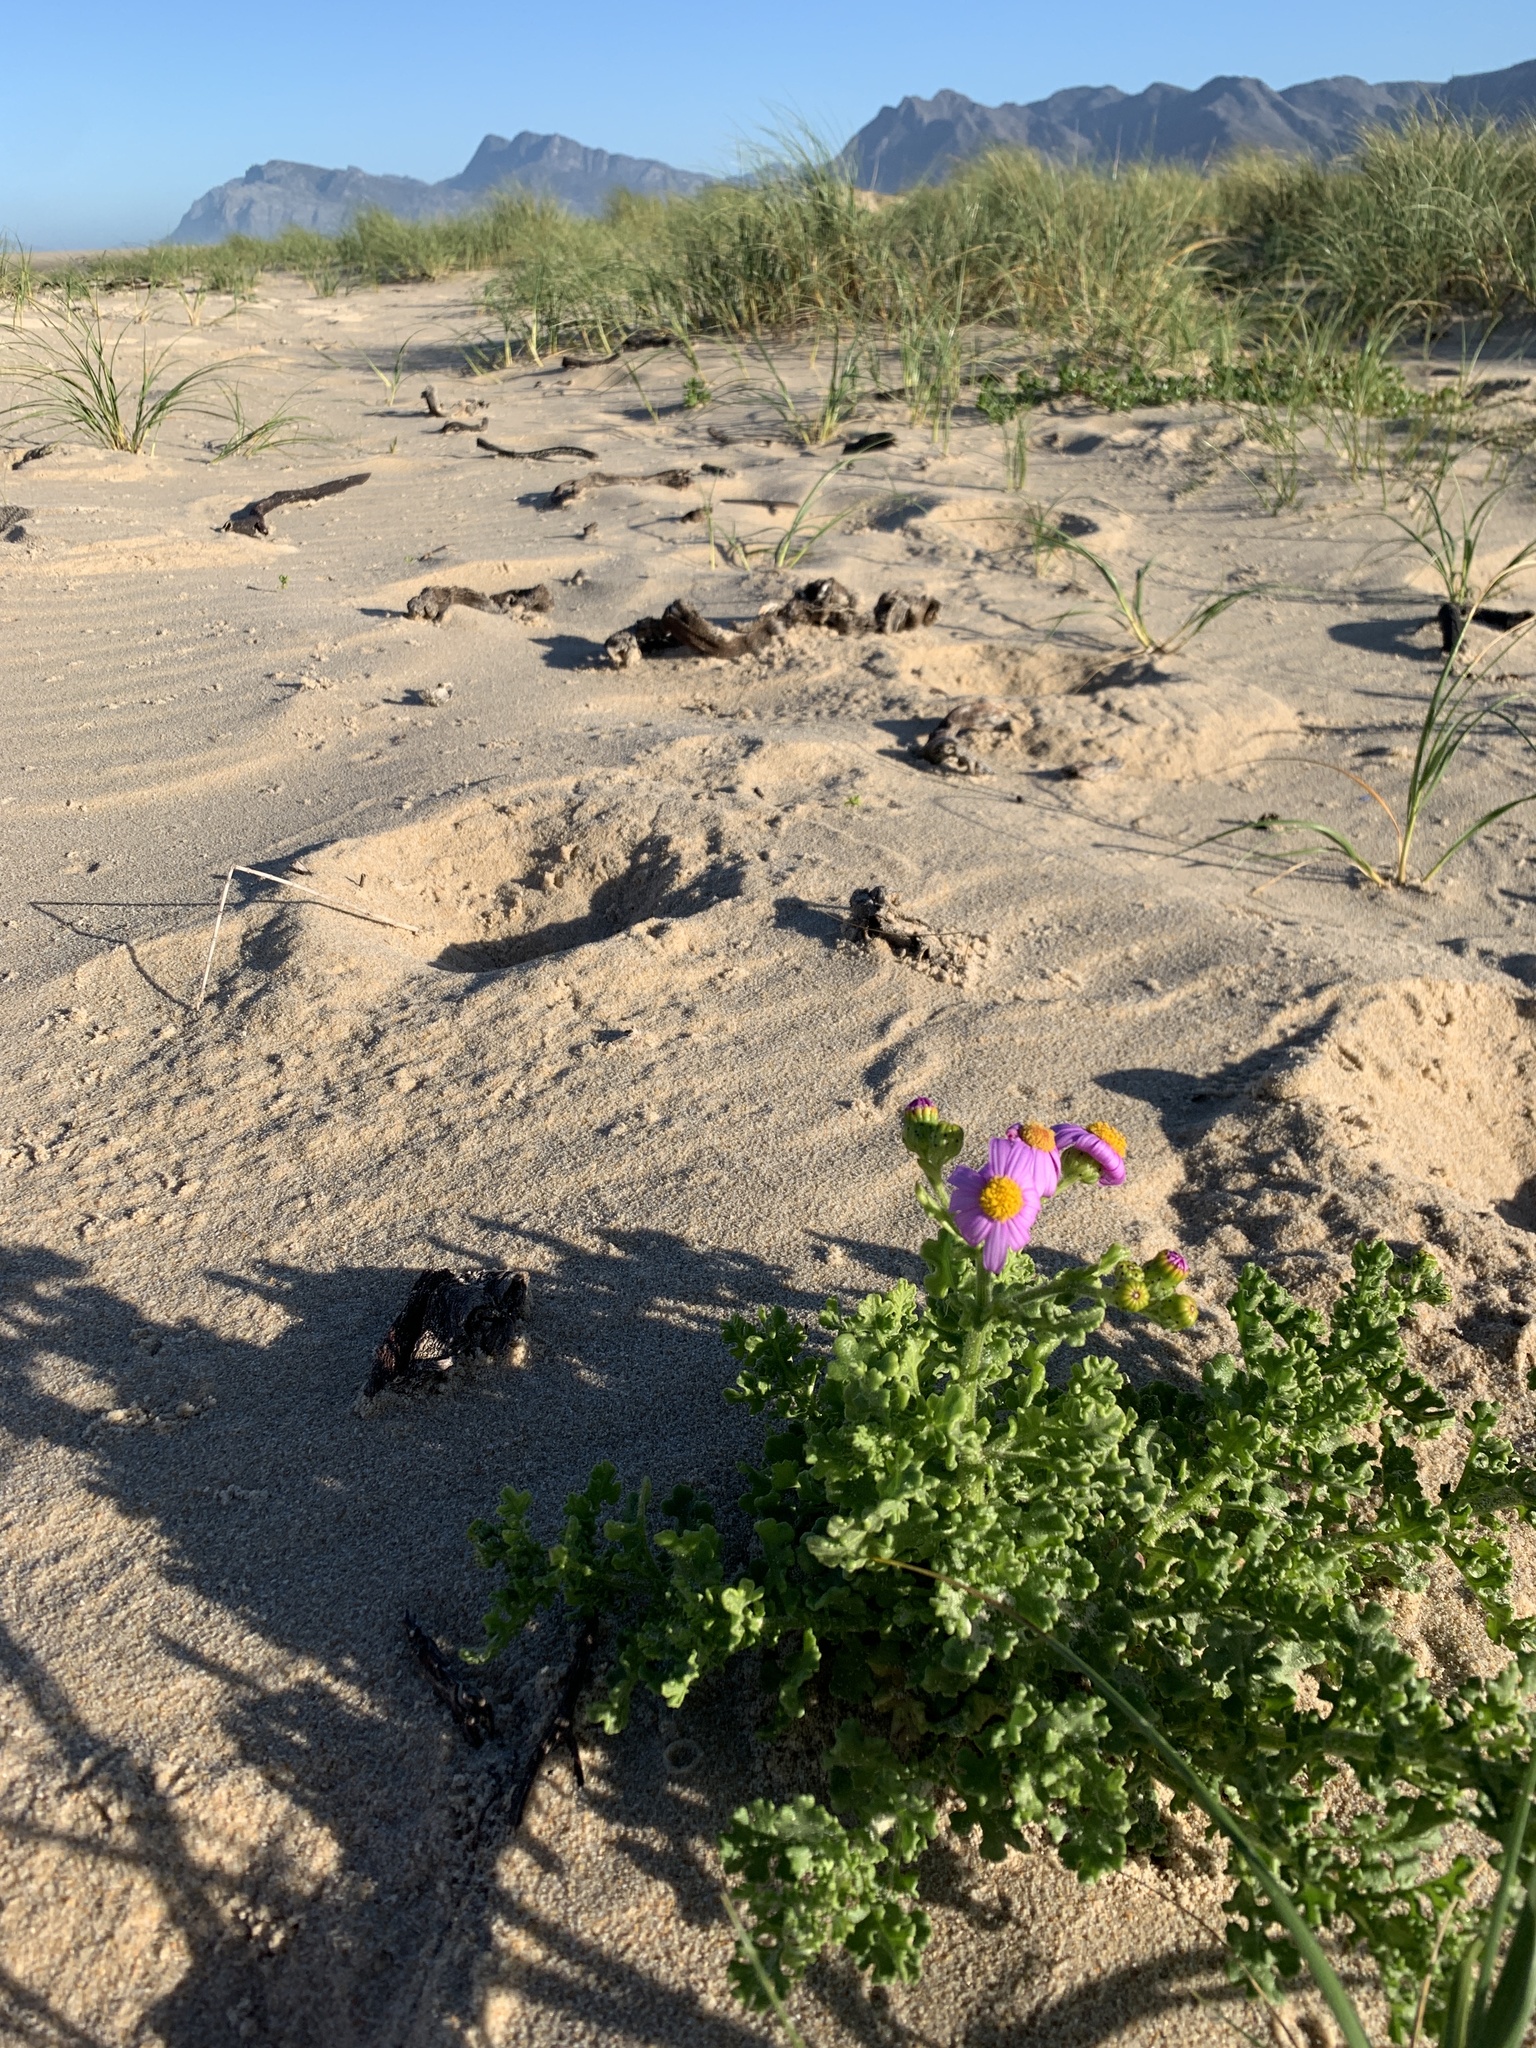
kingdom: Plantae
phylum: Tracheophyta
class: Magnoliopsida
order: Asterales
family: Asteraceae
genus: Senecio
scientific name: Senecio elegans
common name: Purple groundsel
